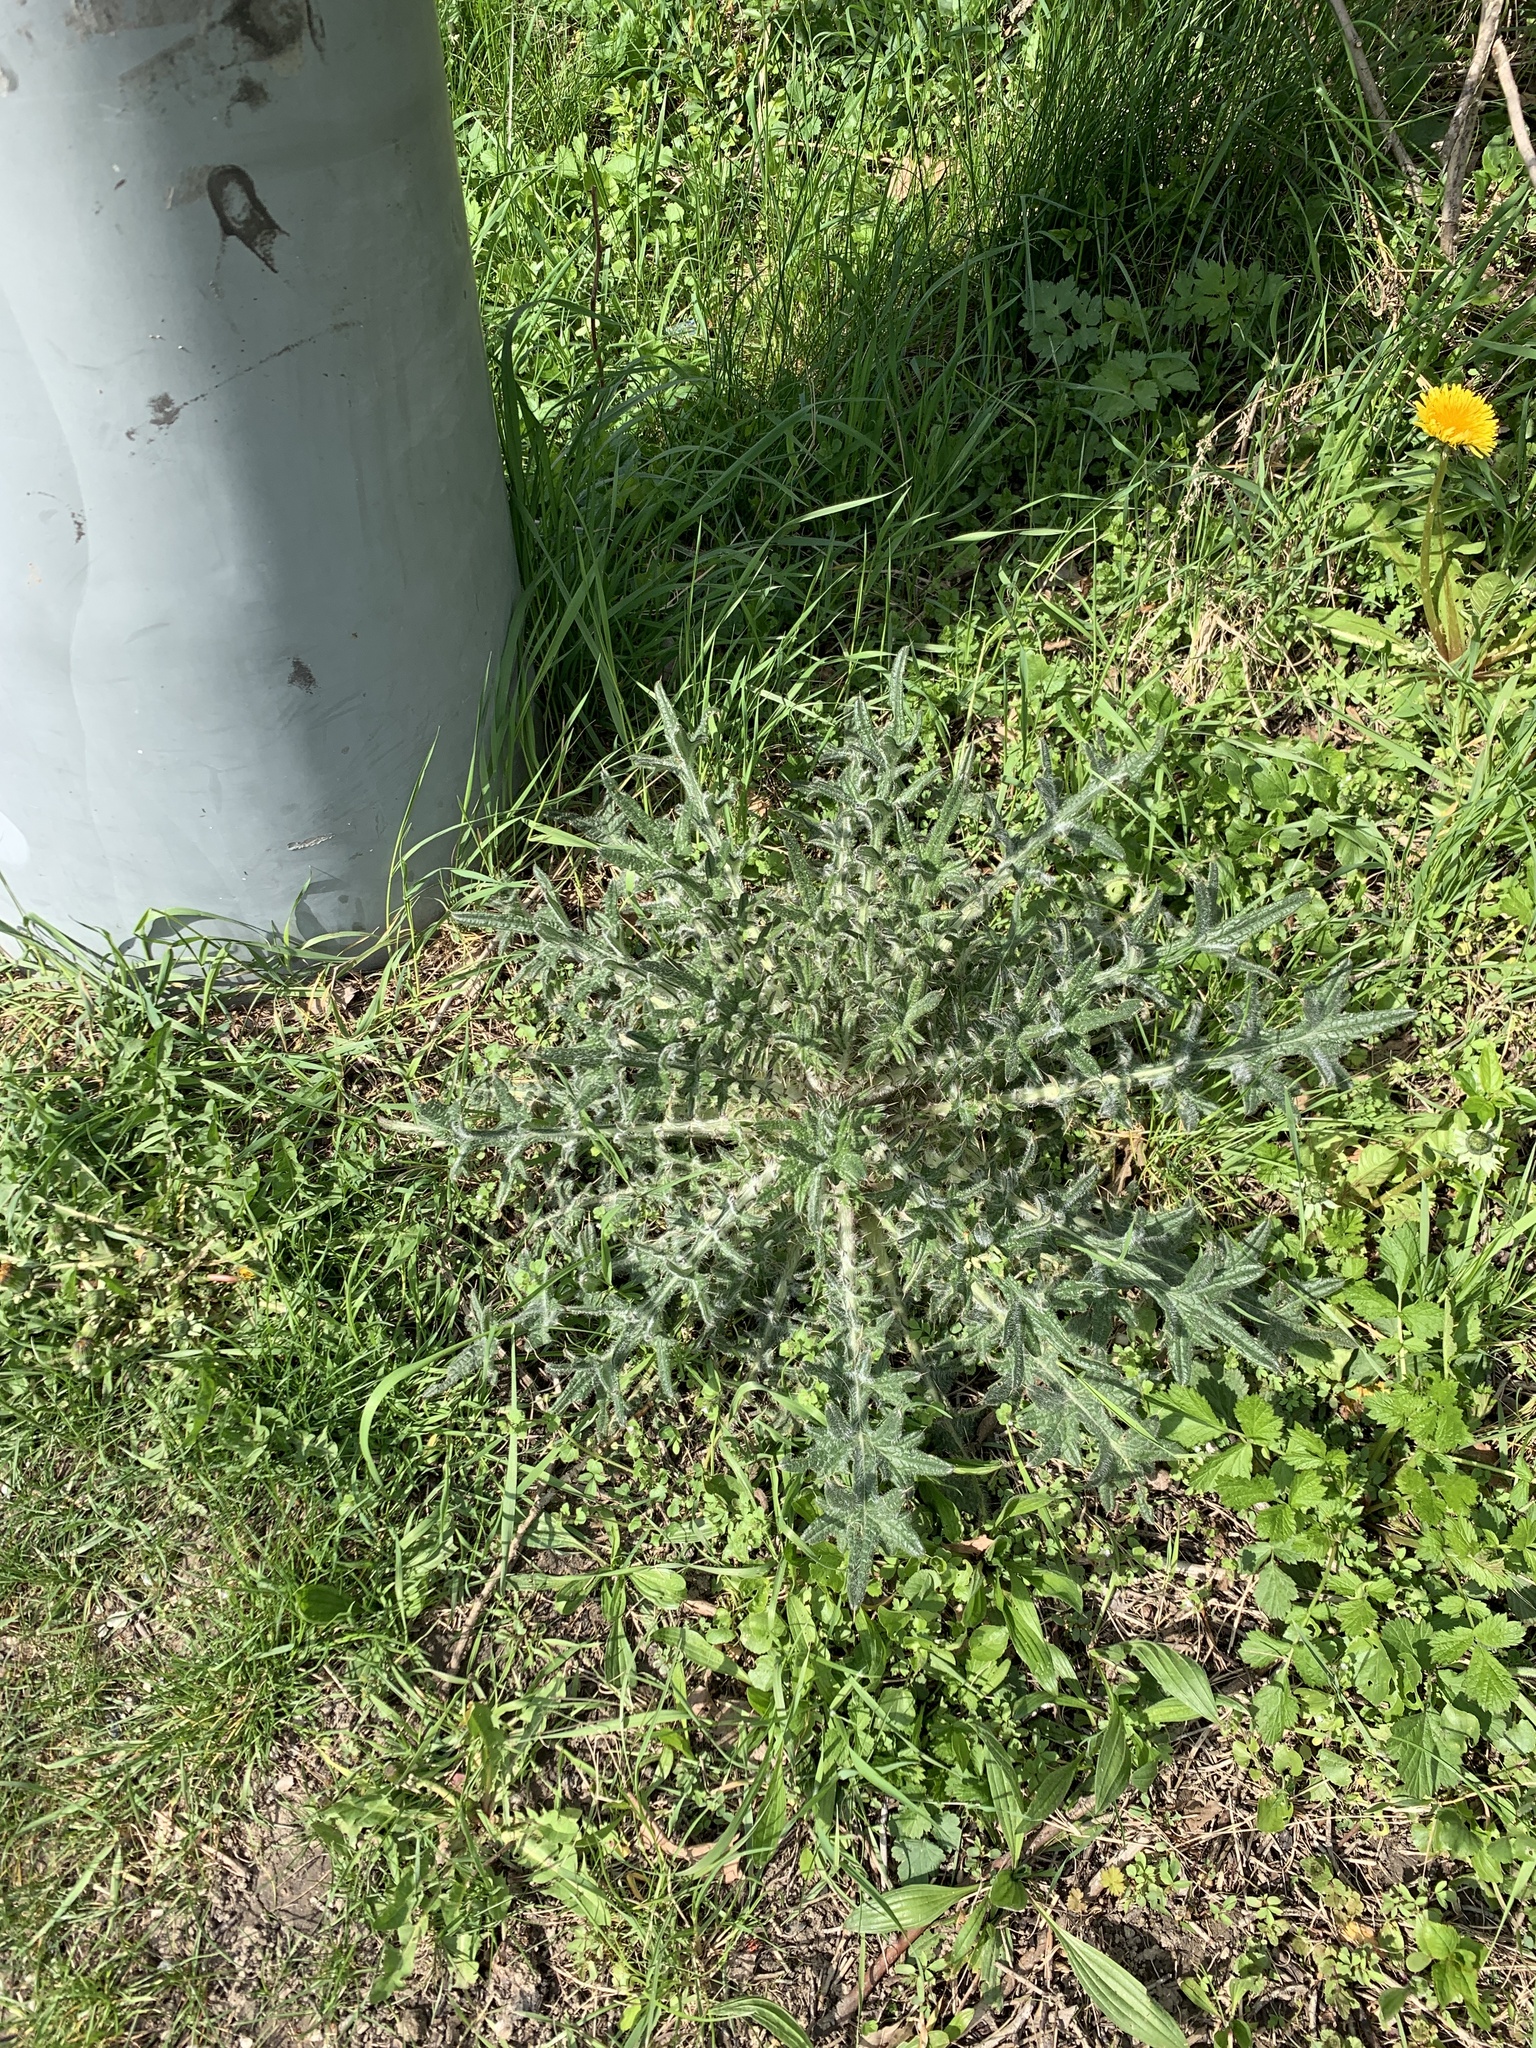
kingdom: Plantae
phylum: Tracheophyta
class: Magnoliopsida
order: Asterales
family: Asteraceae
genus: Cirsium
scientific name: Cirsium vulgare
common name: Bull thistle
